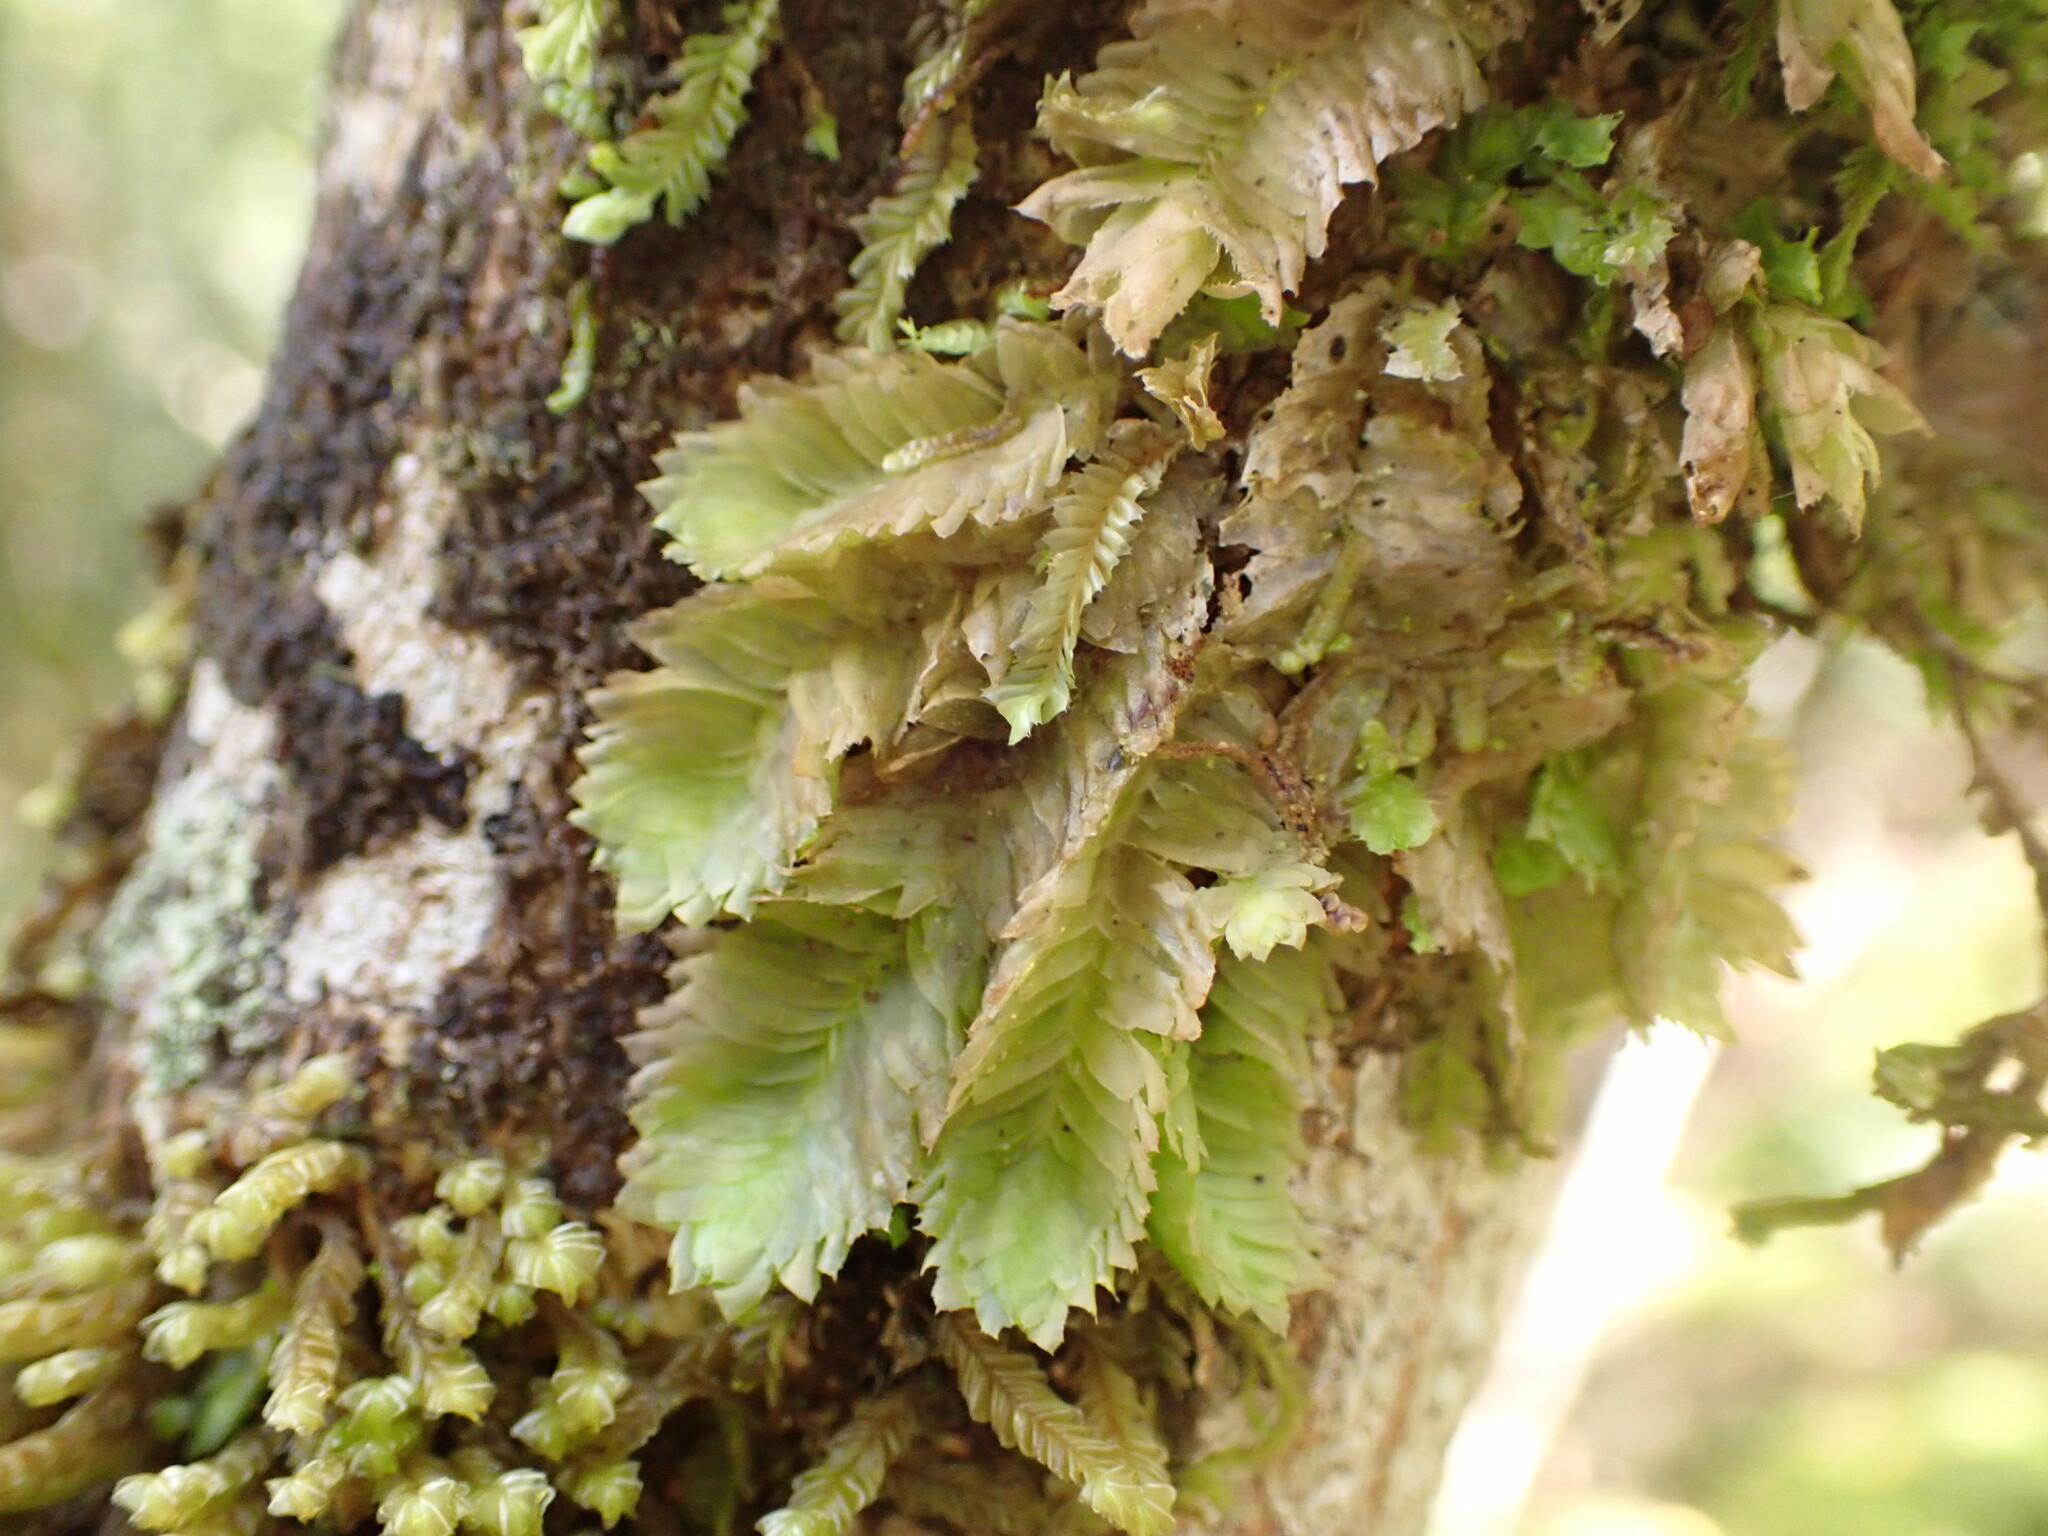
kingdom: Plantae
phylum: Marchantiophyta
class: Jungermanniopsida
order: Jungermanniales
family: Schistochilaceae
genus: Schistochila
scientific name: Schistochila tuloides
